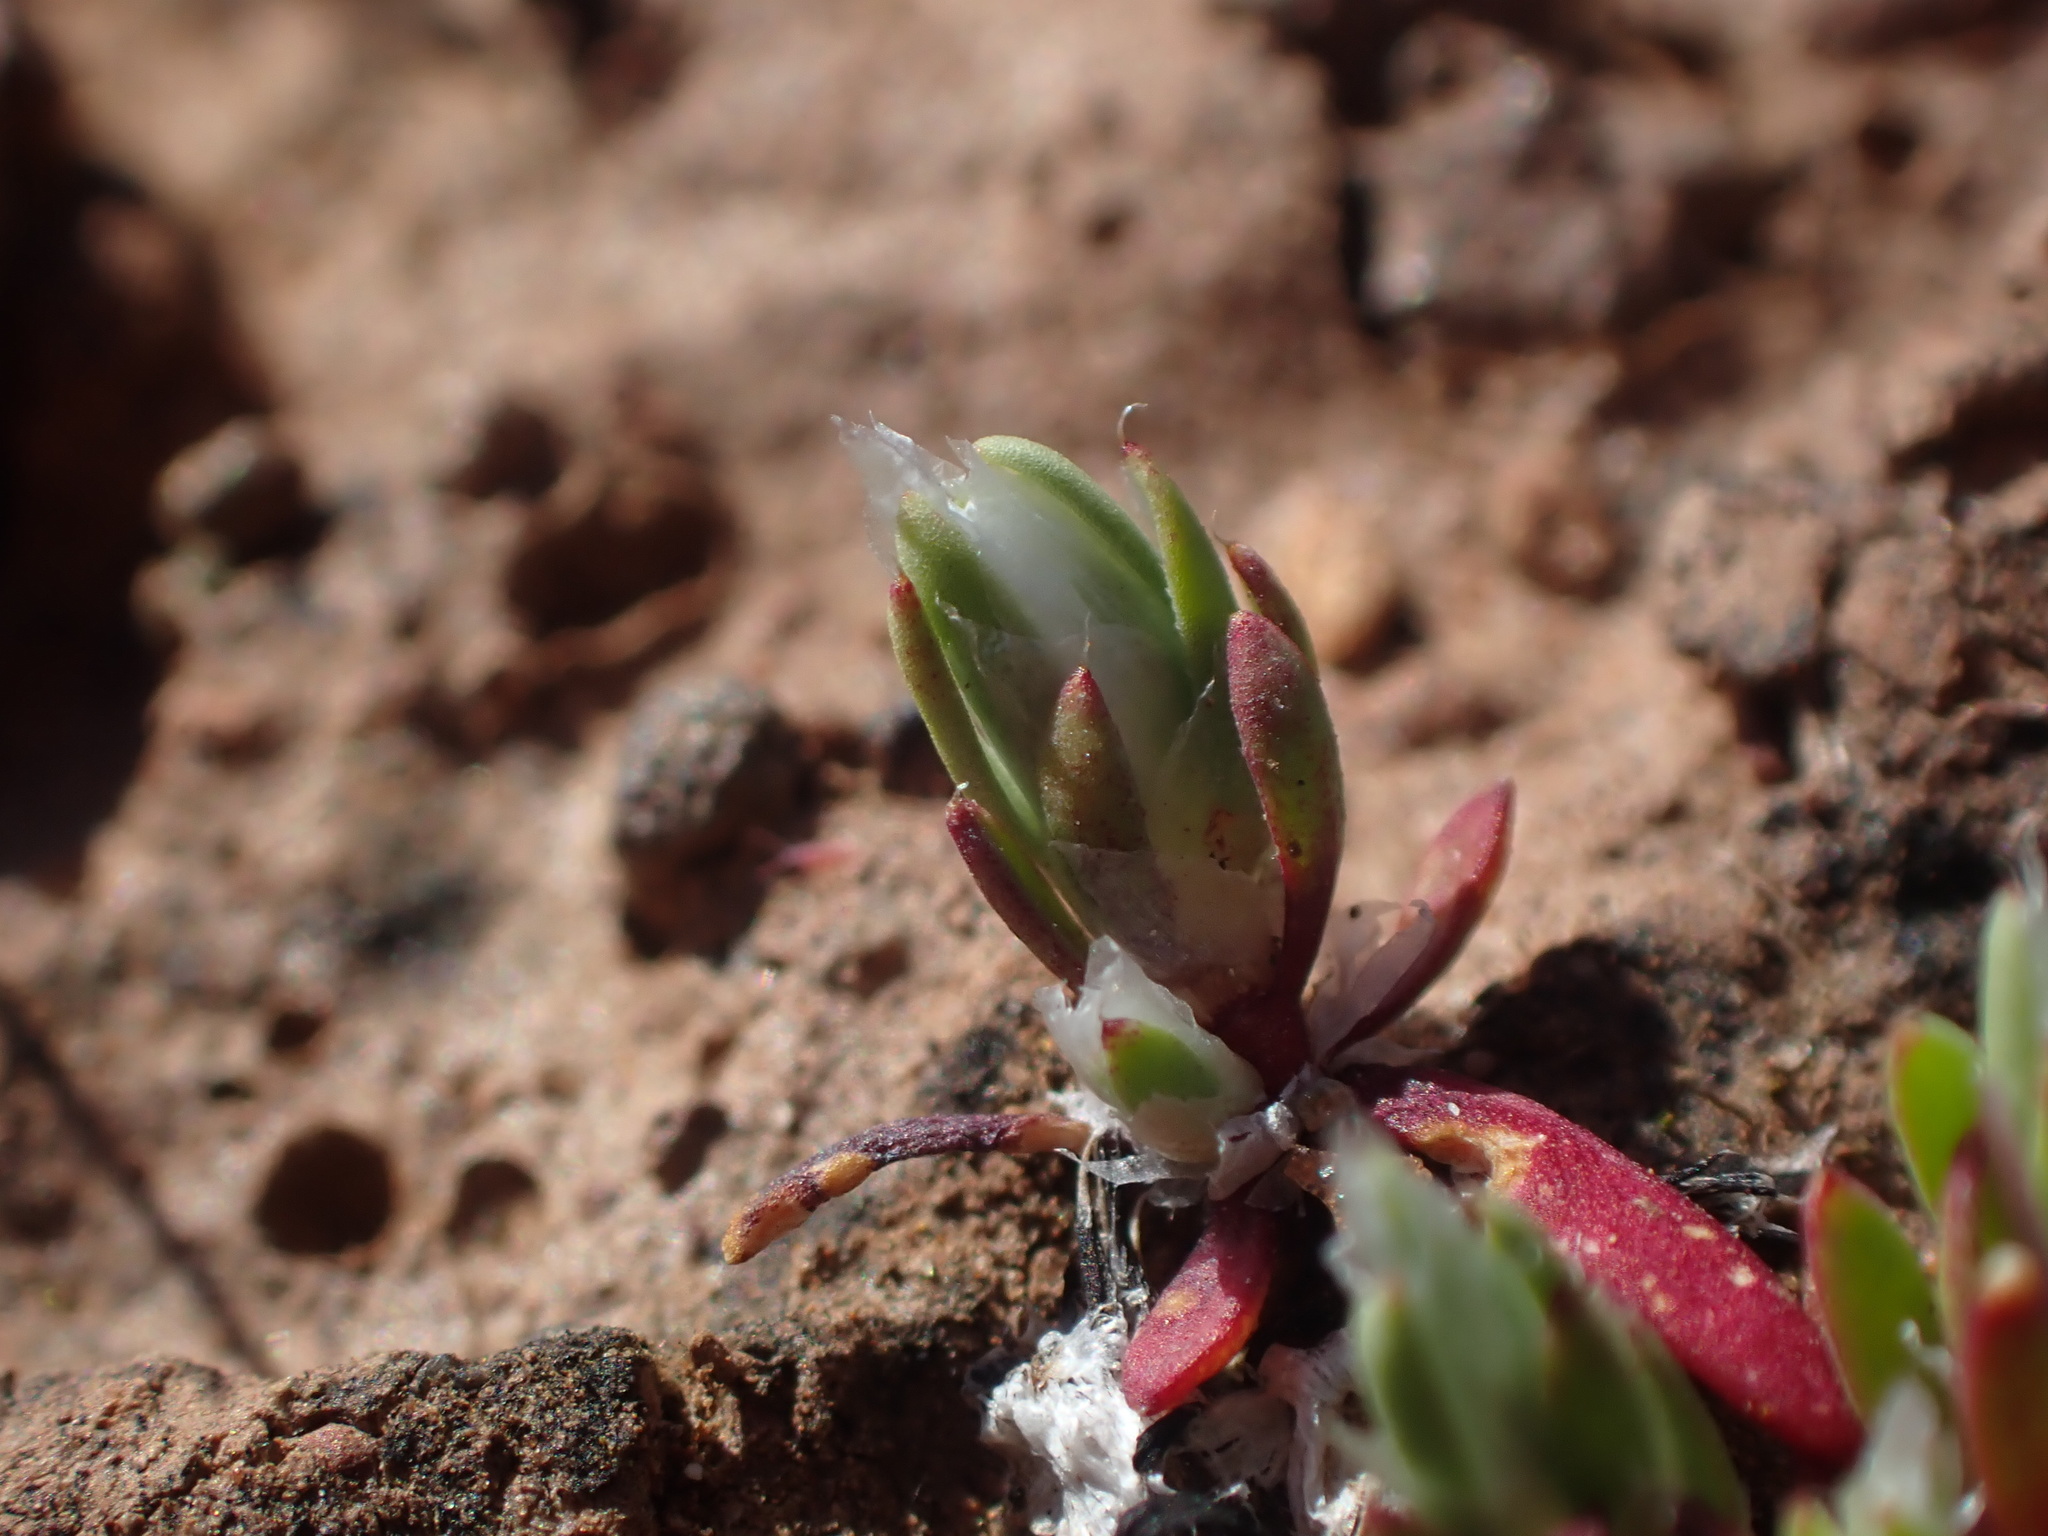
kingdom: Plantae
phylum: Tracheophyta
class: Magnoliopsida
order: Caryophyllales
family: Caryophyllaceae
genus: Paronychia
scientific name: Paronychia ahartii
